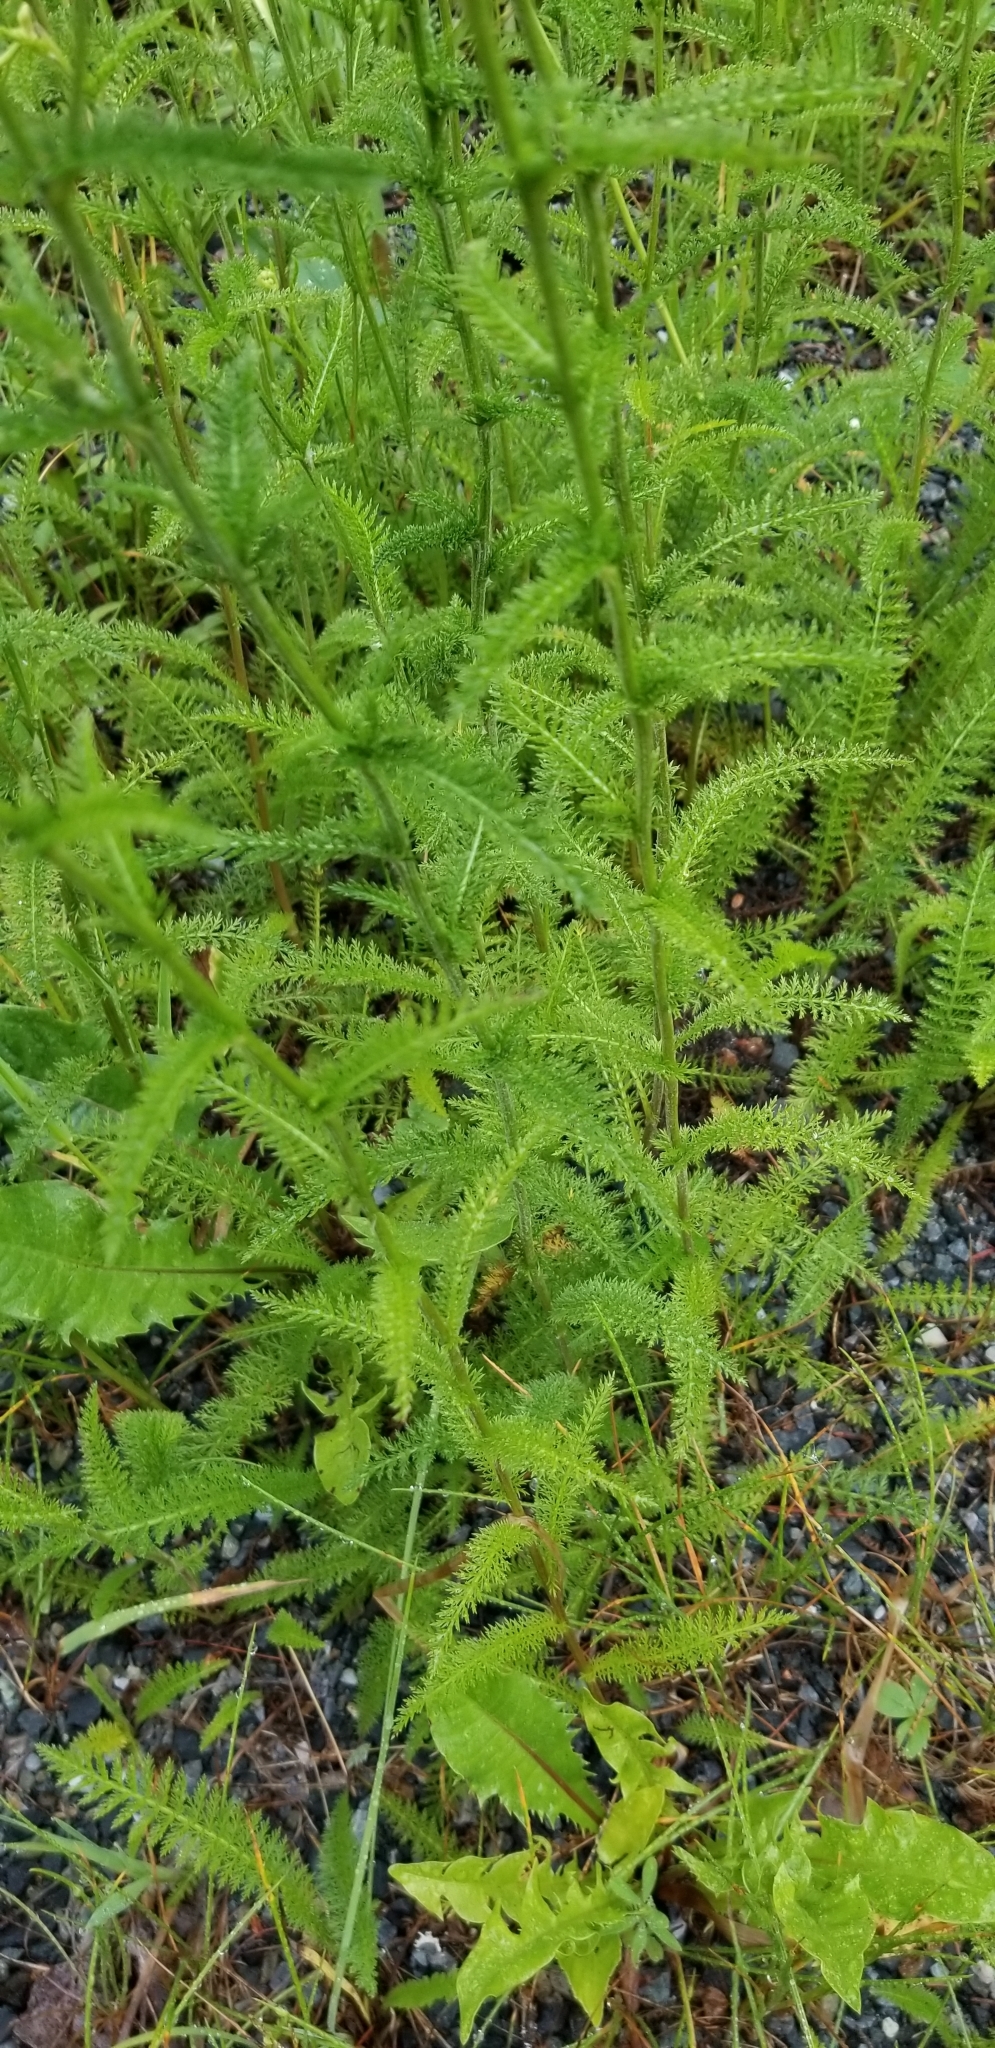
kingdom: Plantae
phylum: Tracheophyta
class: Magnoliopsida
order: Asterales
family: Asteraceae
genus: Achillea
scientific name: Achillea millefolium
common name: Yarrow
